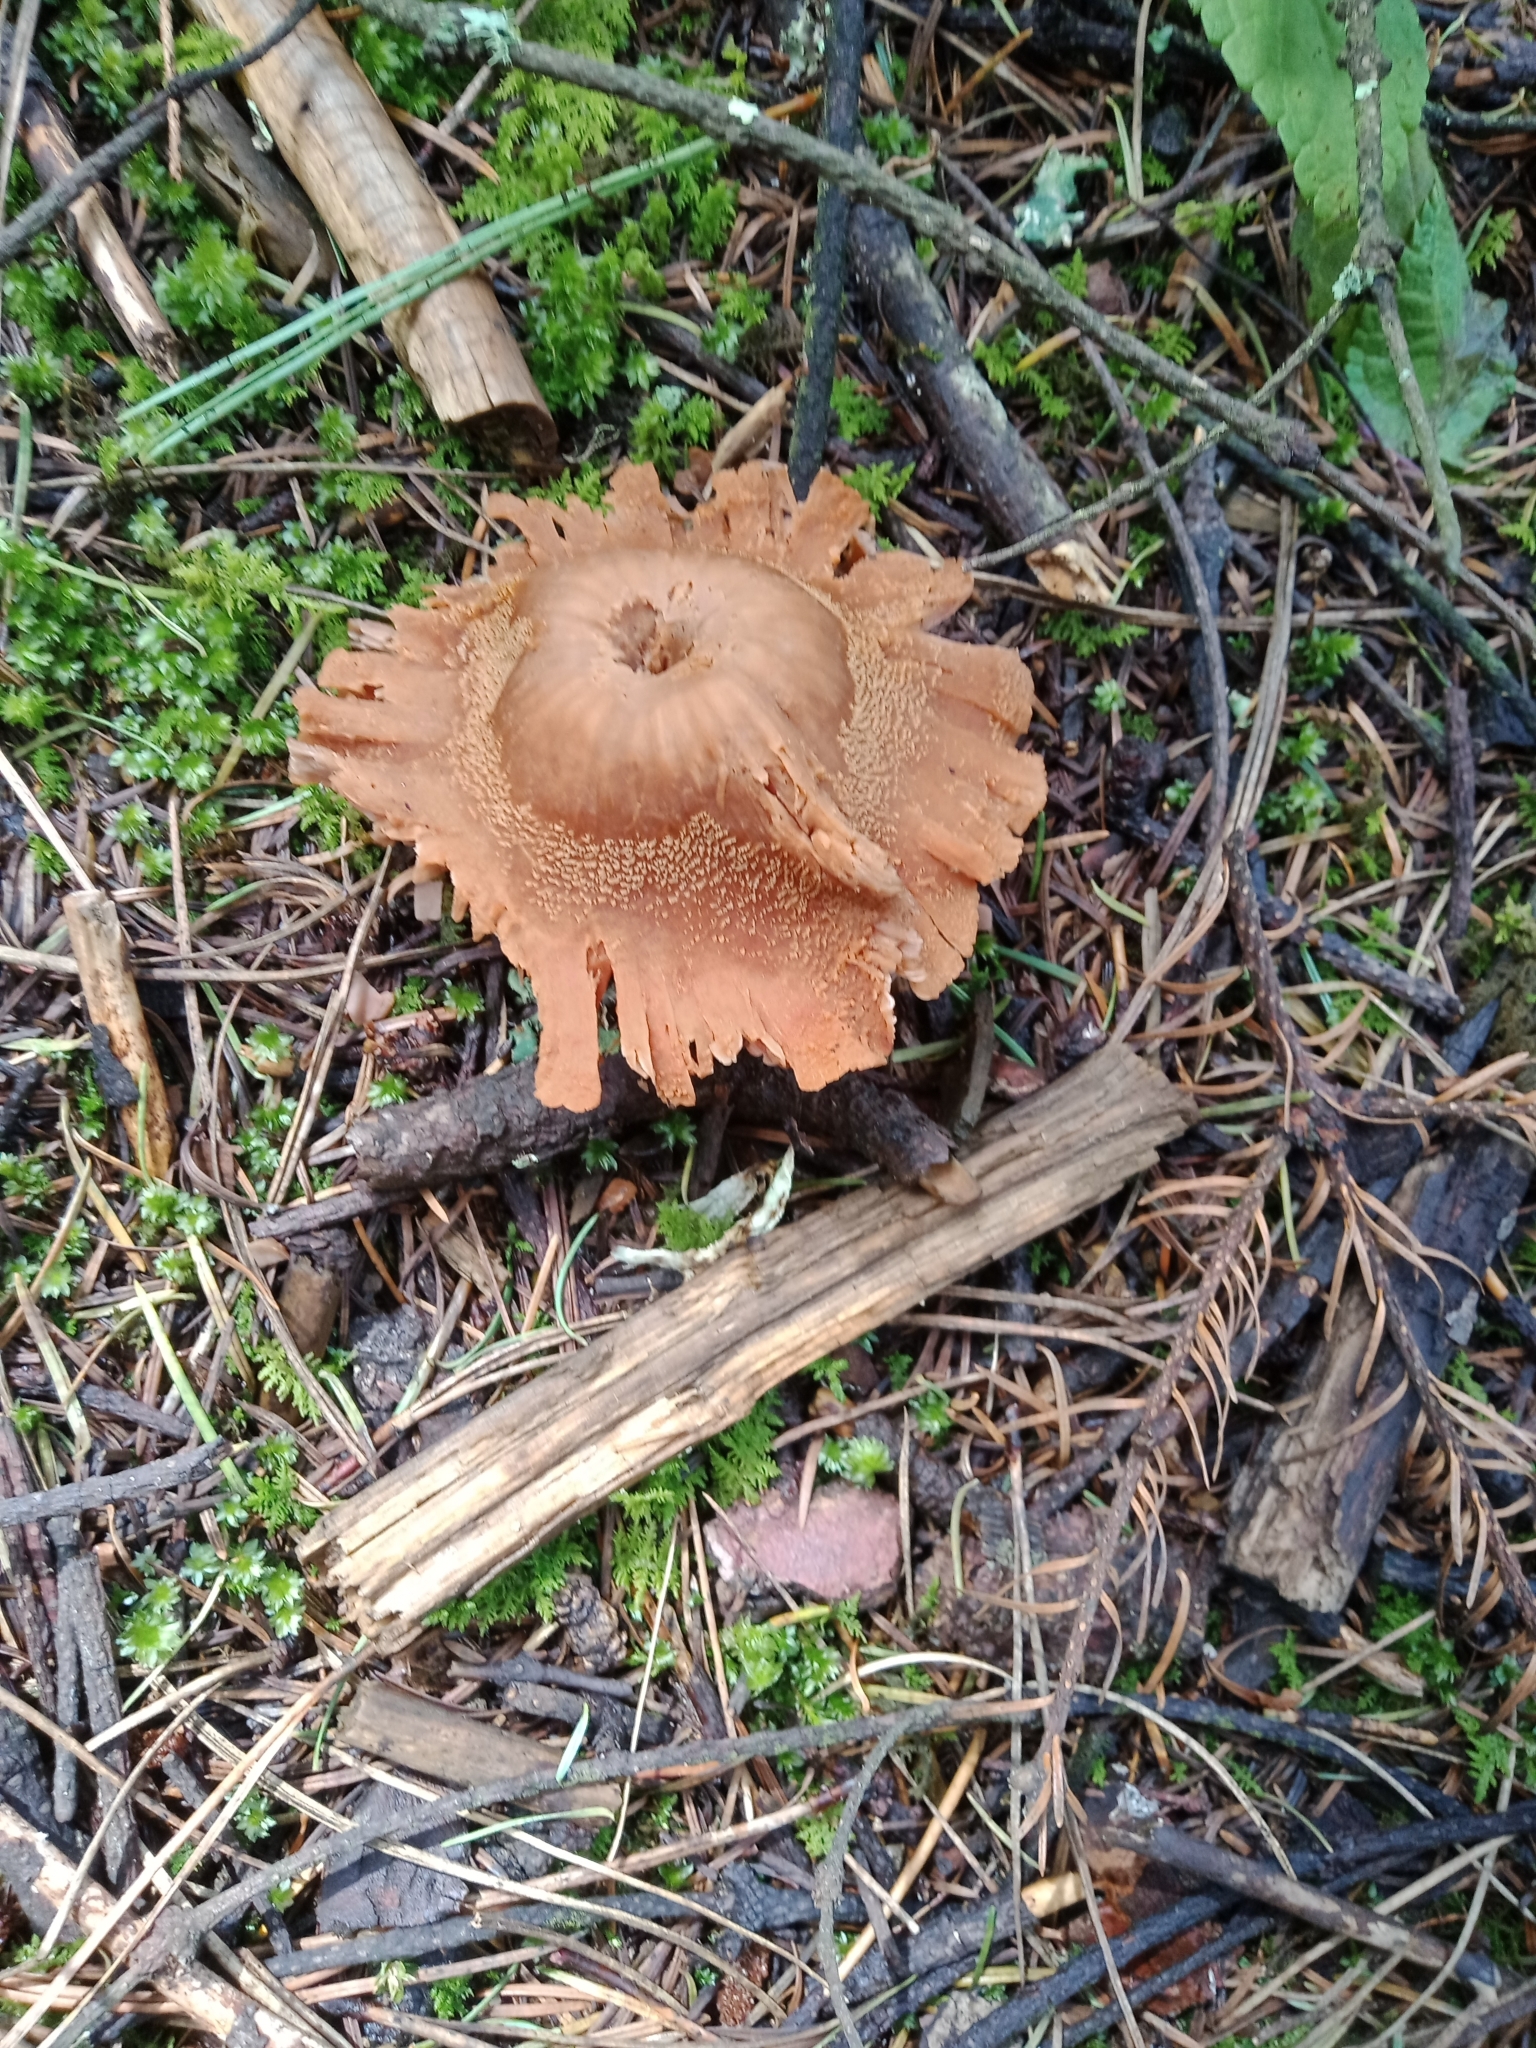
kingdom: Fungi
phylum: Basidiomycota
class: Agaricomycetes
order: Agaricales
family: Hydnangiaceae
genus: Laccaria
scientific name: Laccaria proxima
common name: Scurfy deceiver
